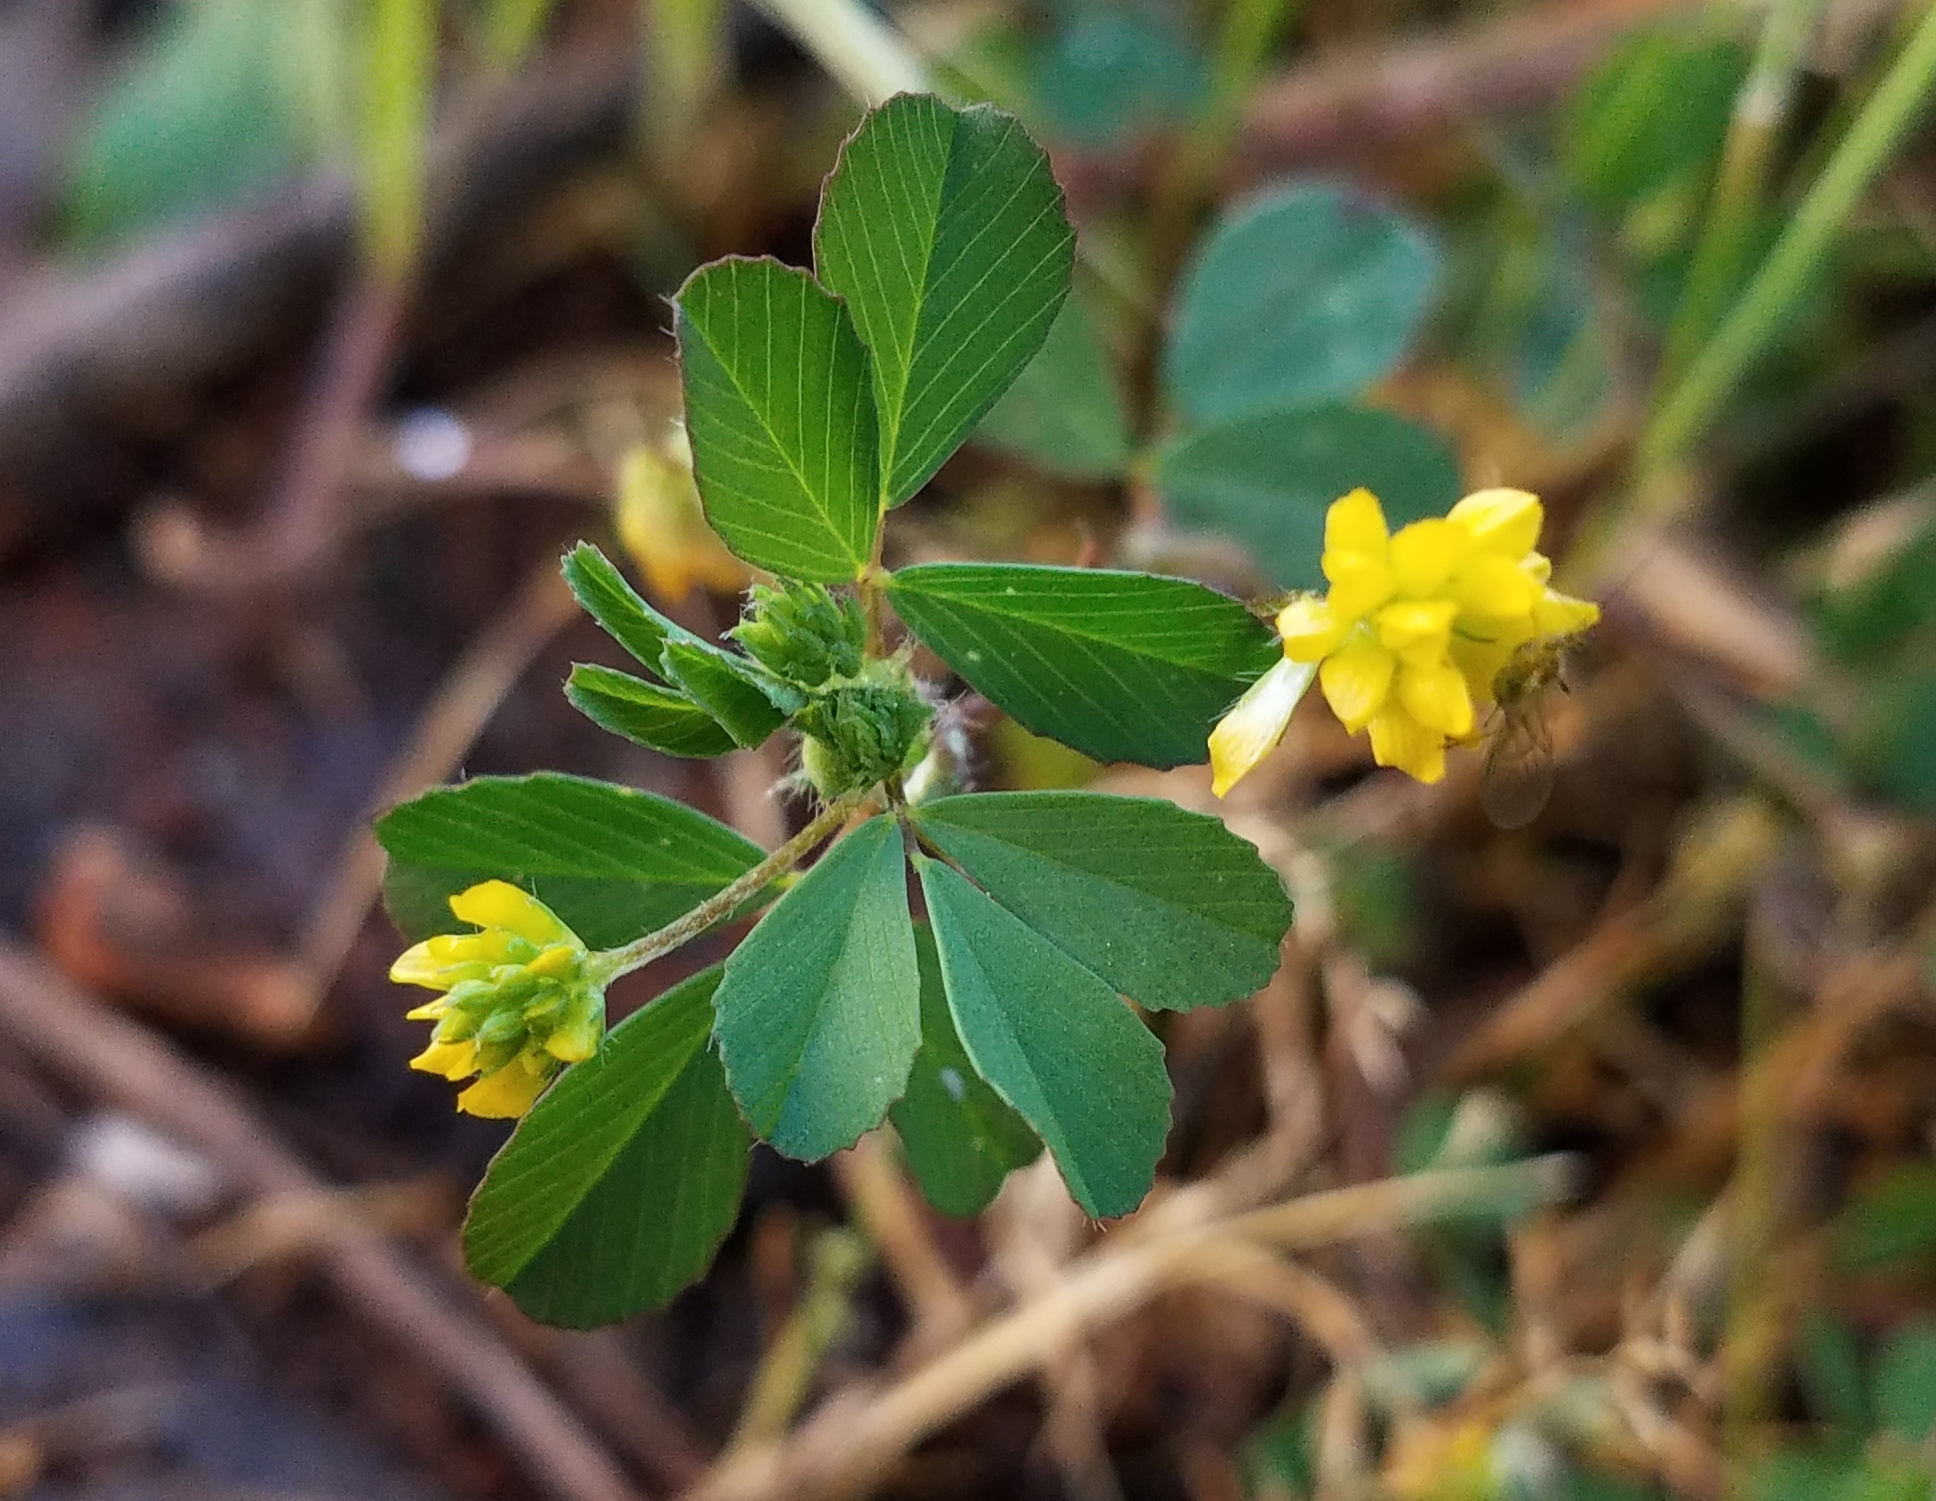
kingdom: Plantae
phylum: Tracheophyta
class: Magnoliopsida
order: Fabales
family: Fabaceae
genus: Trifolium
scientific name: Trifolium dubium
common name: Suckling clover
